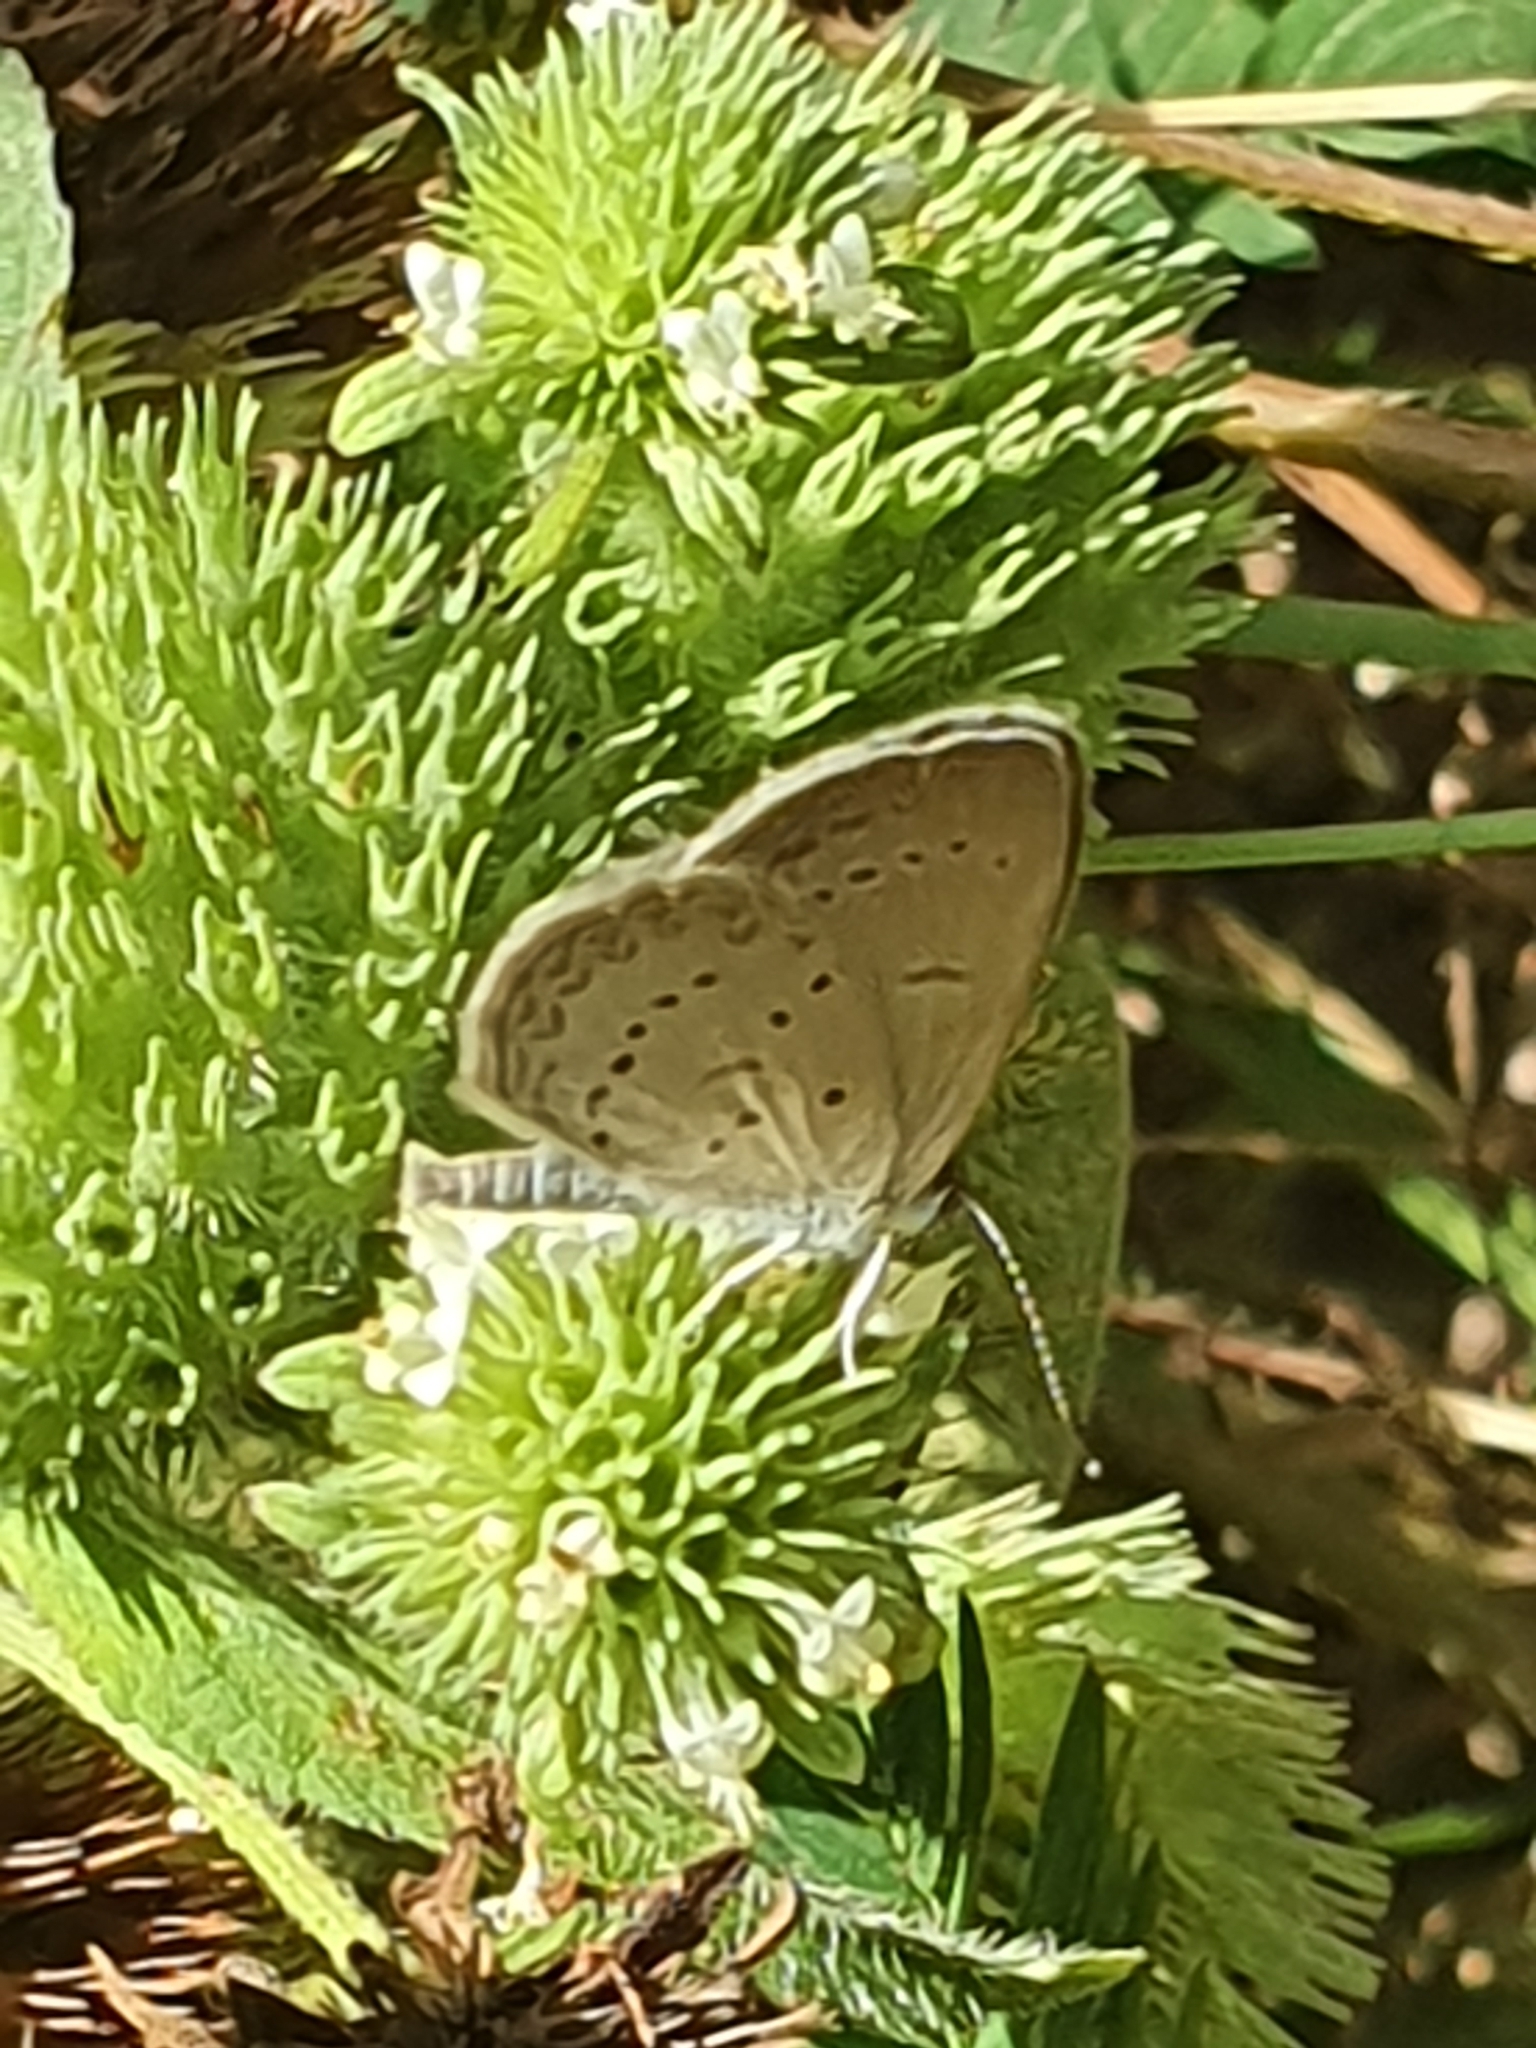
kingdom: Animalia
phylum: Arthropoda
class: Insecta
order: Lepidoptera
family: Lycaenidae
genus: Zizina
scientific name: Zizina otis
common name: Lesser grass blue
